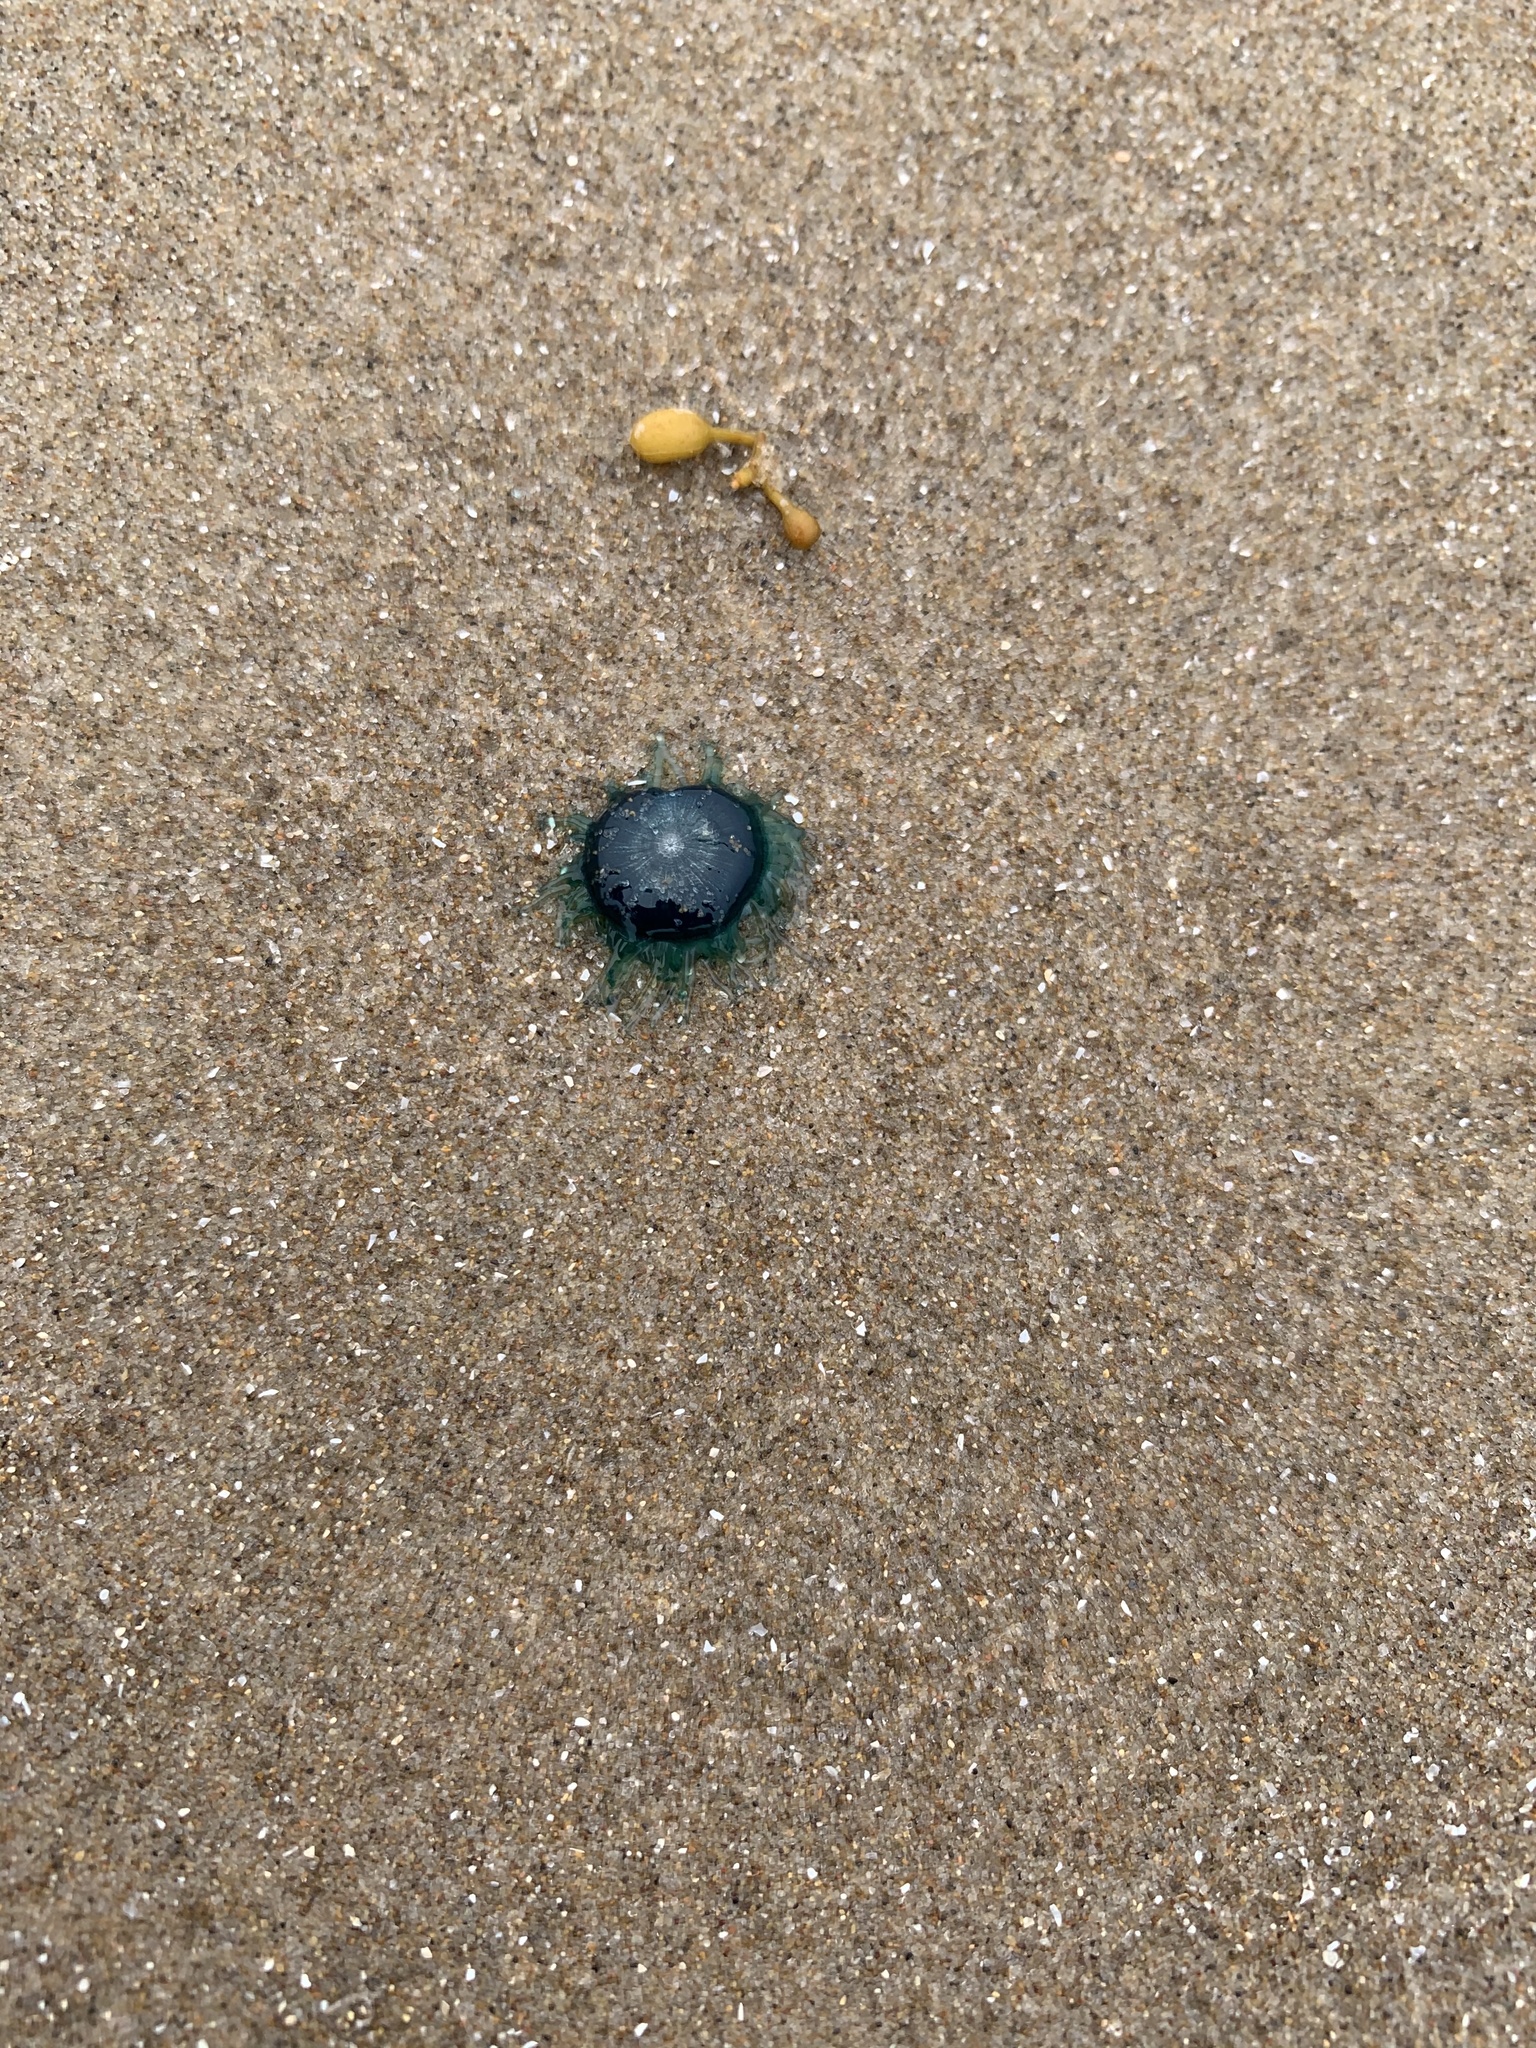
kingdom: Animalia
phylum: Cnidaria
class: Hydrozoa
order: Anthoathecata
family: Porpitidae
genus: Porpita
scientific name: Porpita porpita
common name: Blue button
